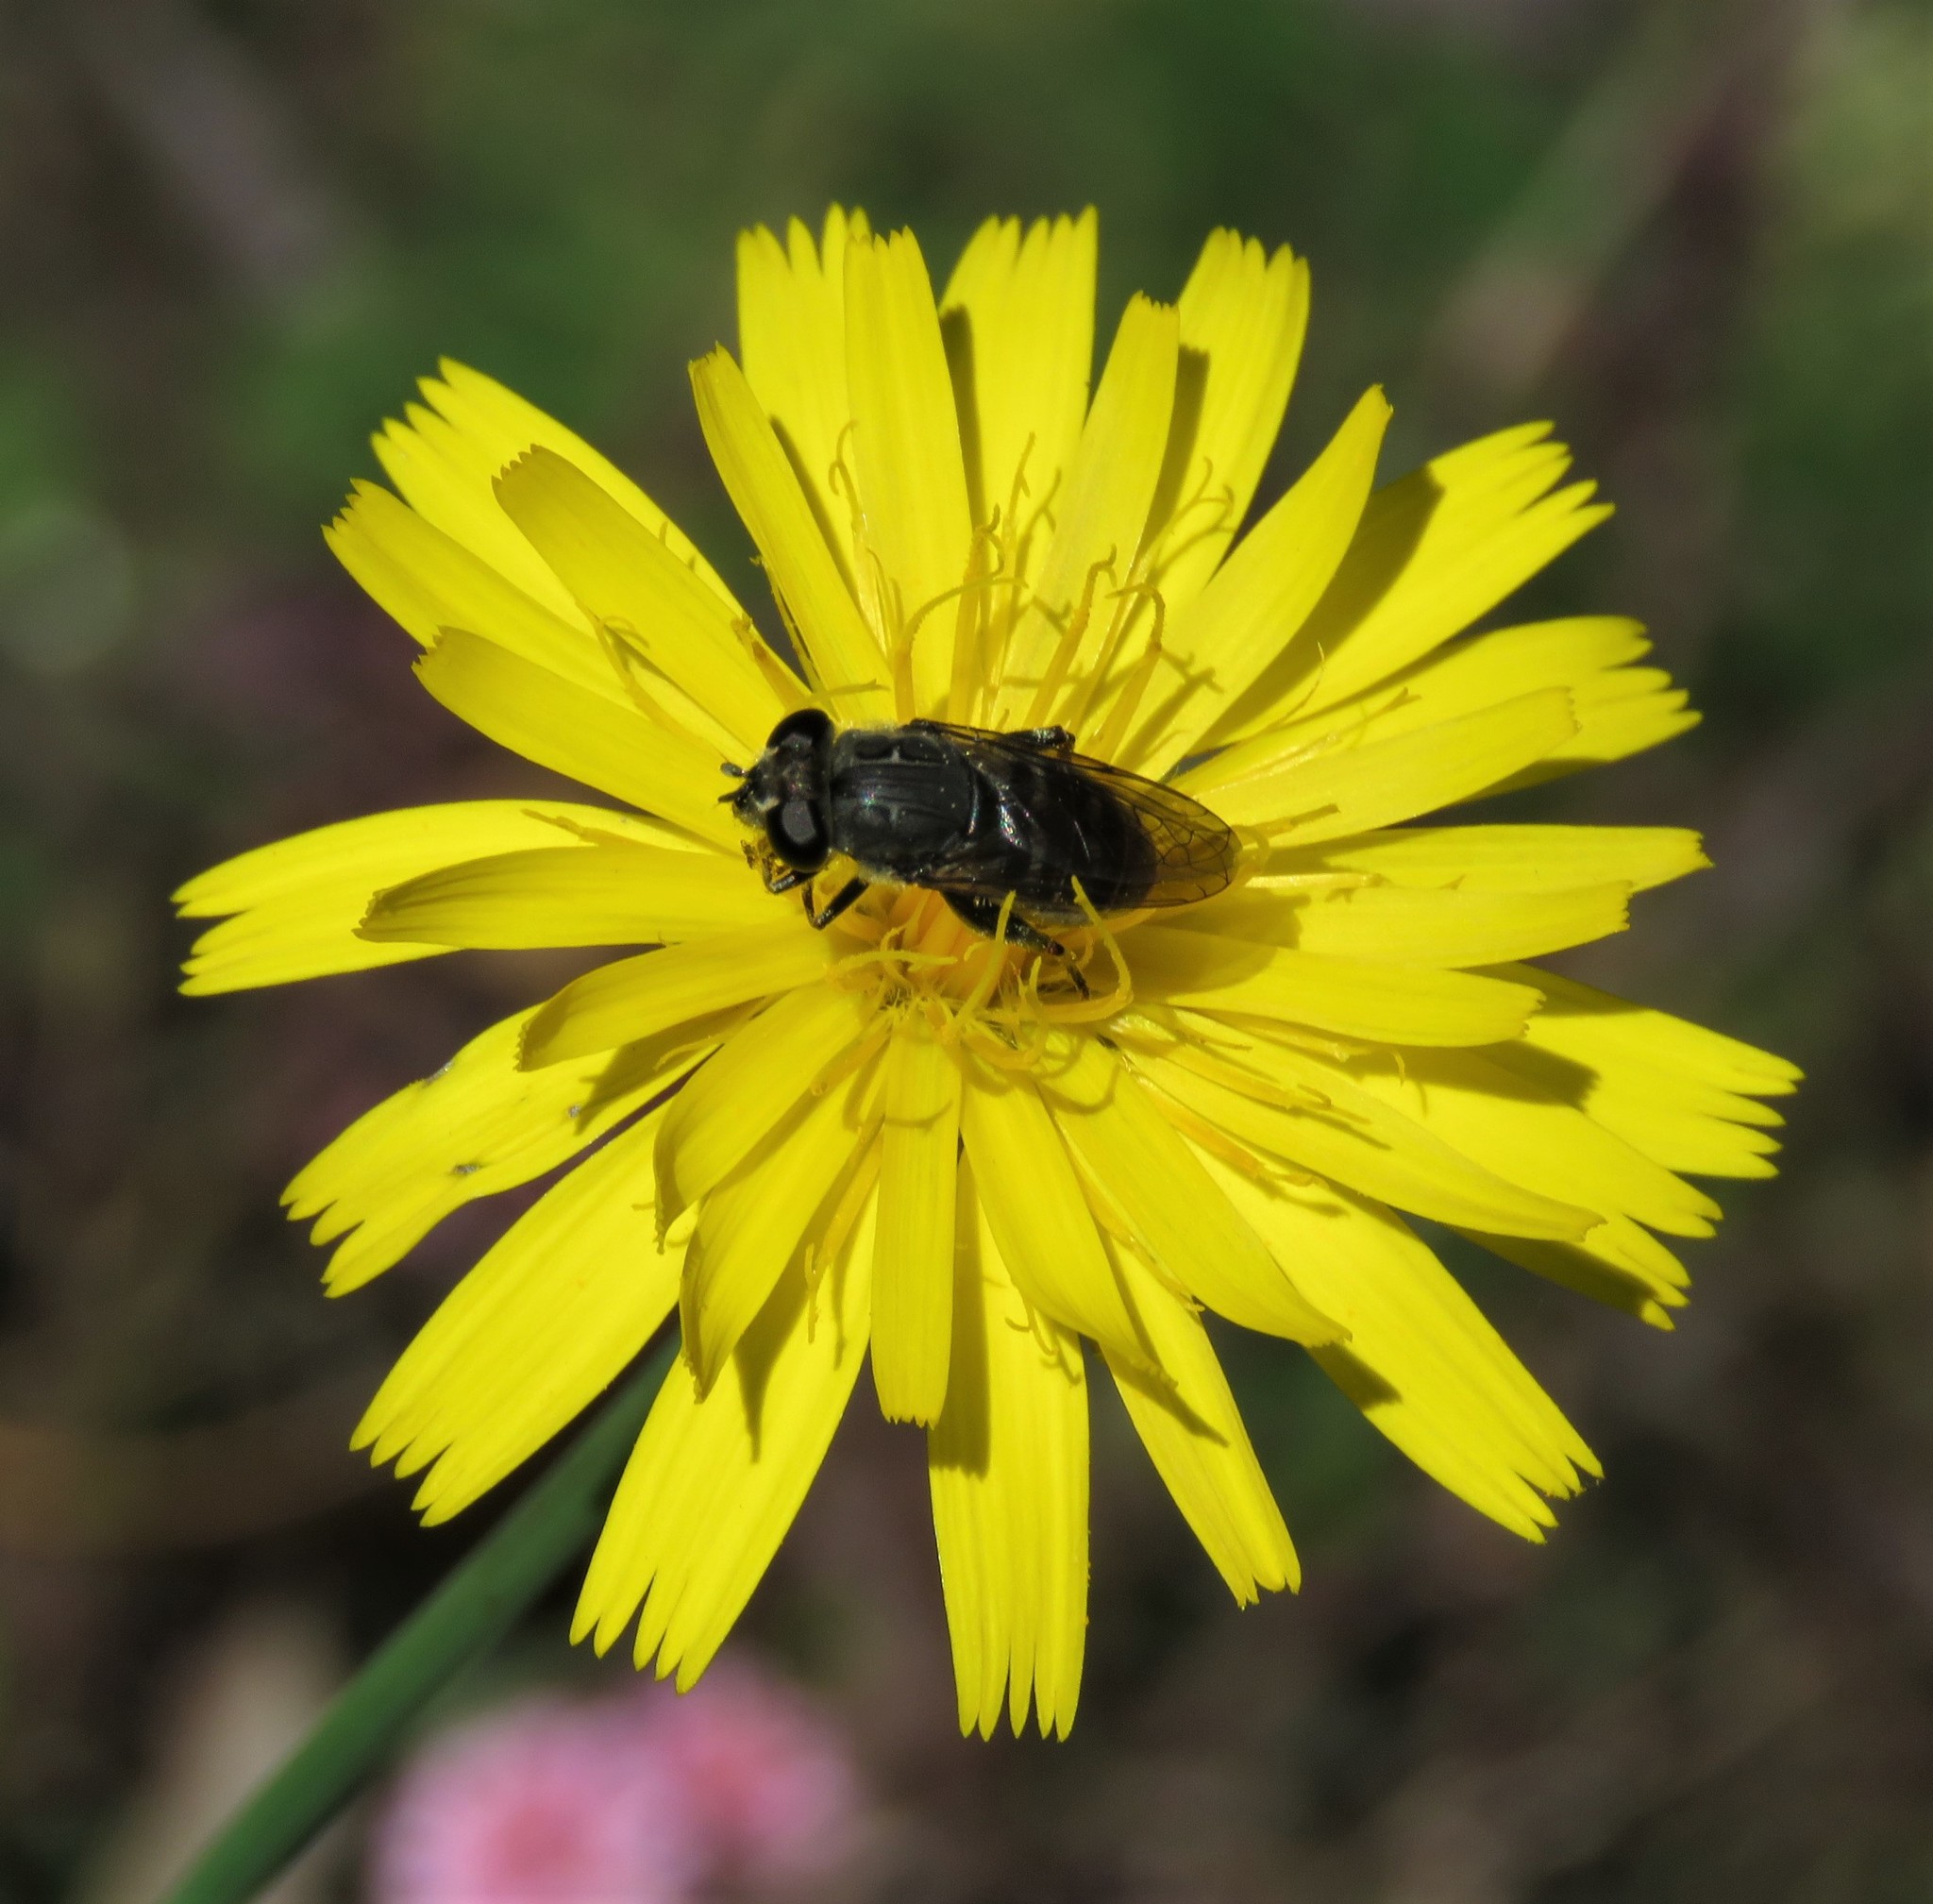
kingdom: Animalia
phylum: Arthropoda
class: Insecta
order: Diptera
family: Syrphidae
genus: Asemosyrphus
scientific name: Asemosyrphus
